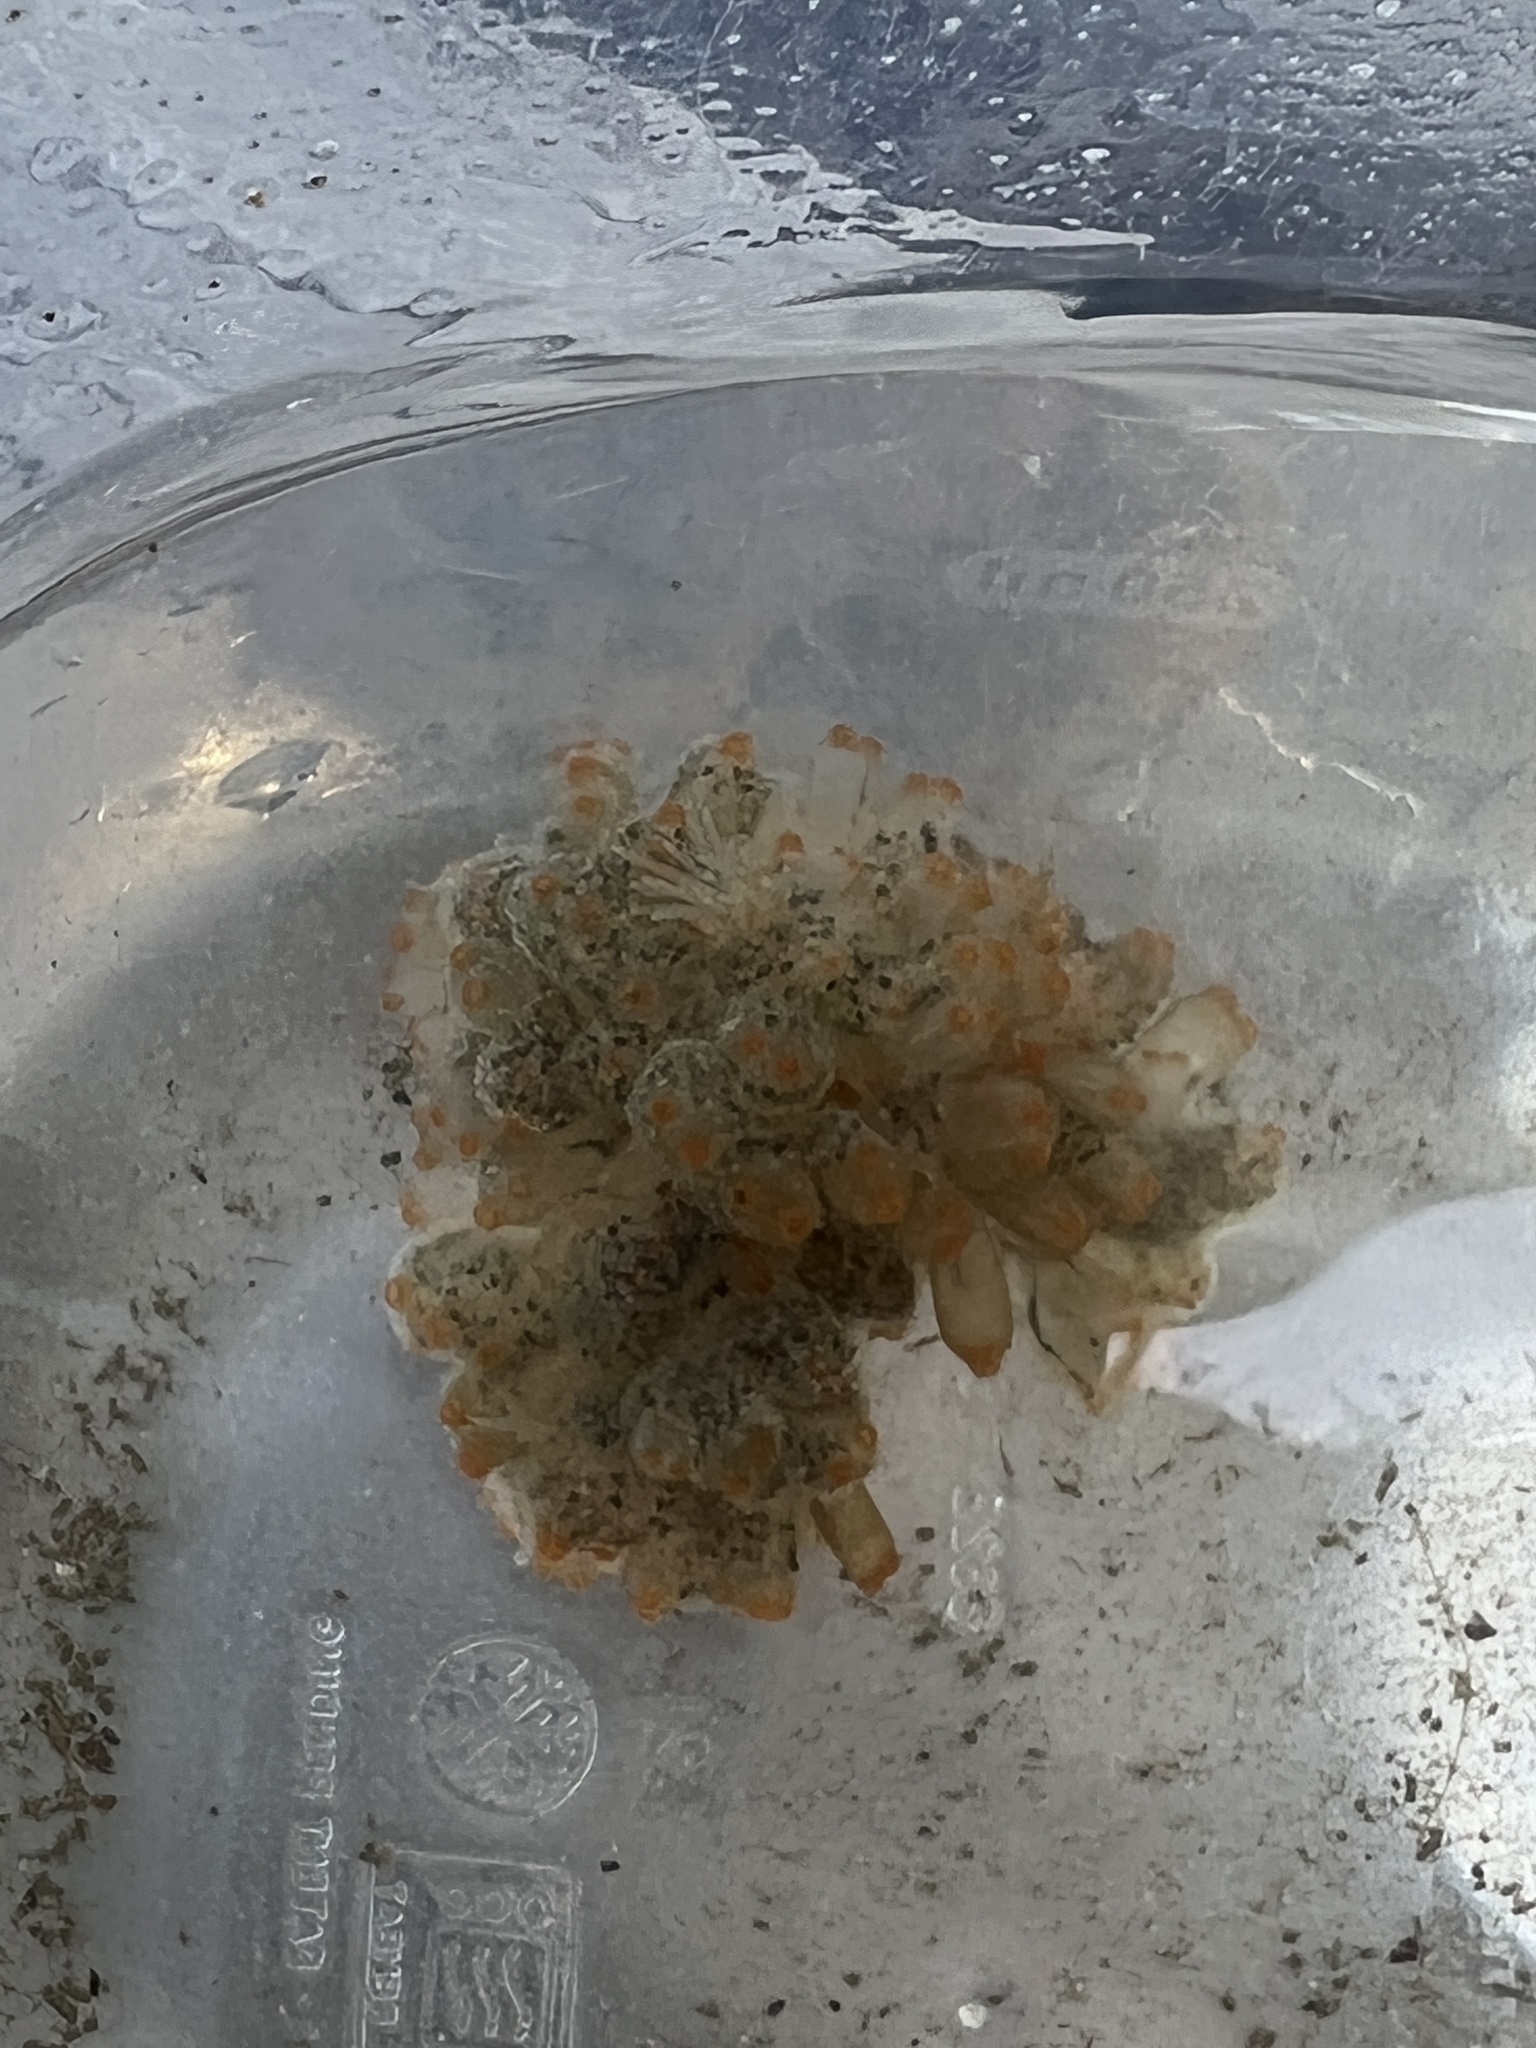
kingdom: Animalia
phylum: Chordata
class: Ascidiacea
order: Phlebobranchia
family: Perophoridae
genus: Ecteinascidia
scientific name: Ecteinascidia turbinata
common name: Mangrove tunicate
